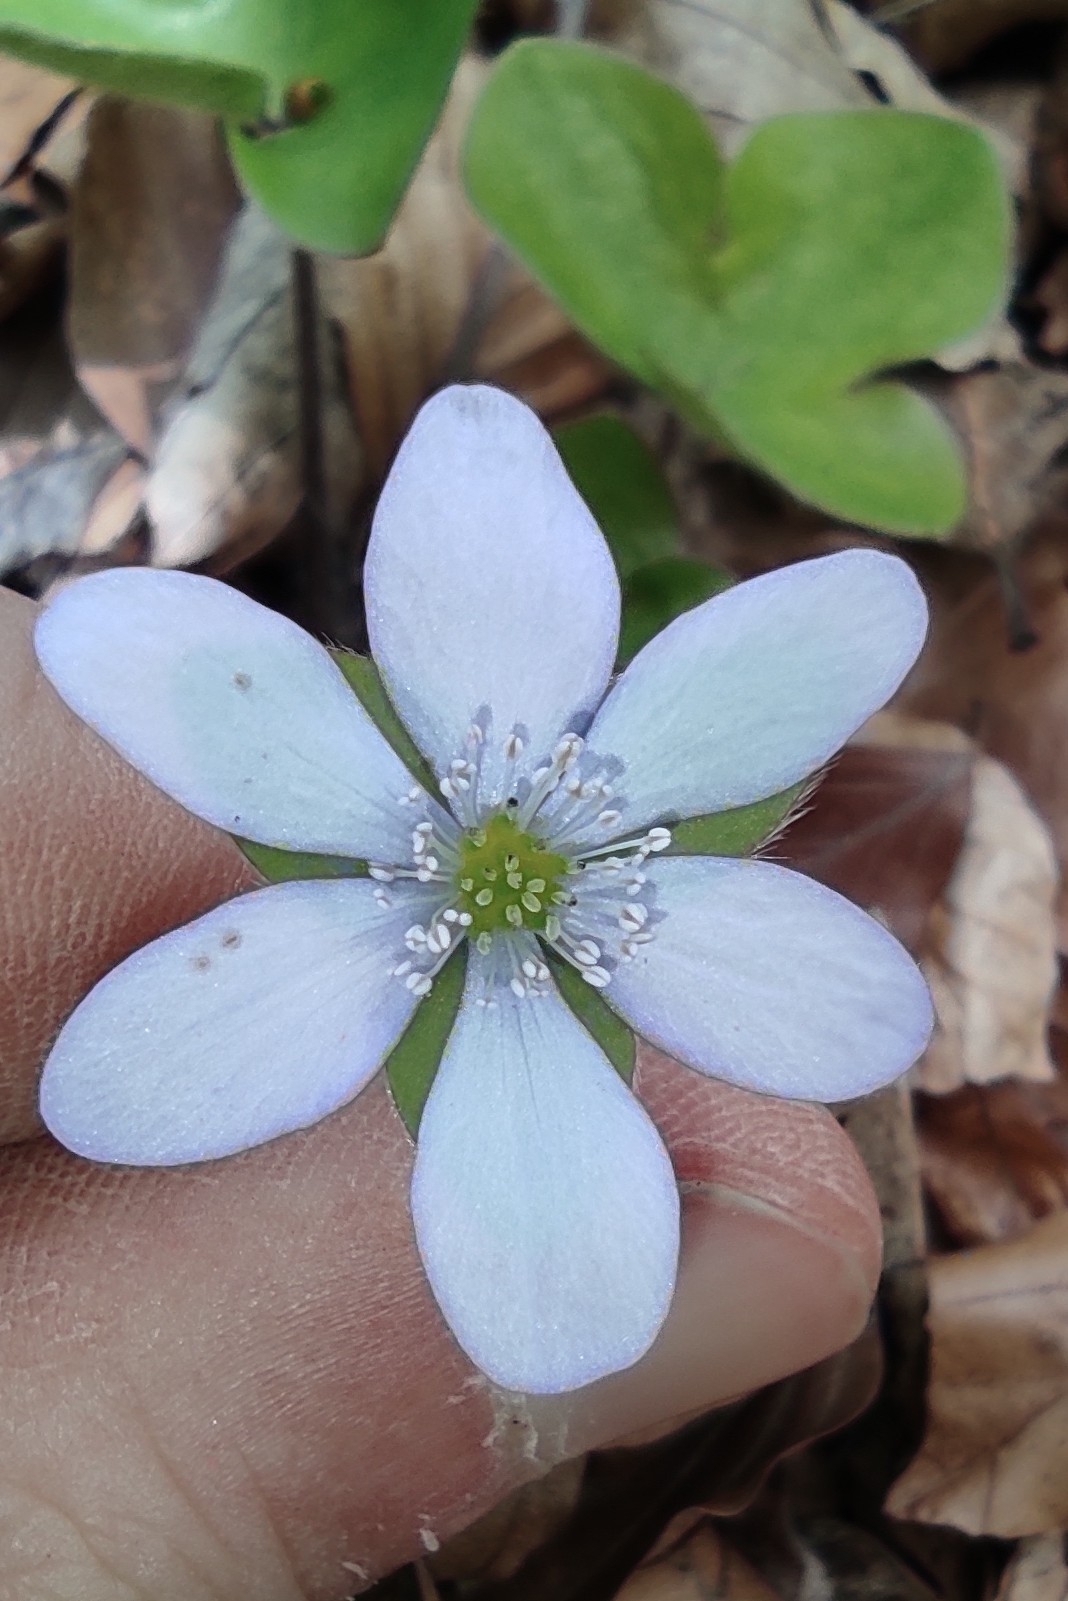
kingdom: Plantae
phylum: Tracheophyta
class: Magnoliopsida
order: Ranunculales
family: Ranunculaceae
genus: Hepatica
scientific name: Hepatica nobilis
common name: Liverleaf
